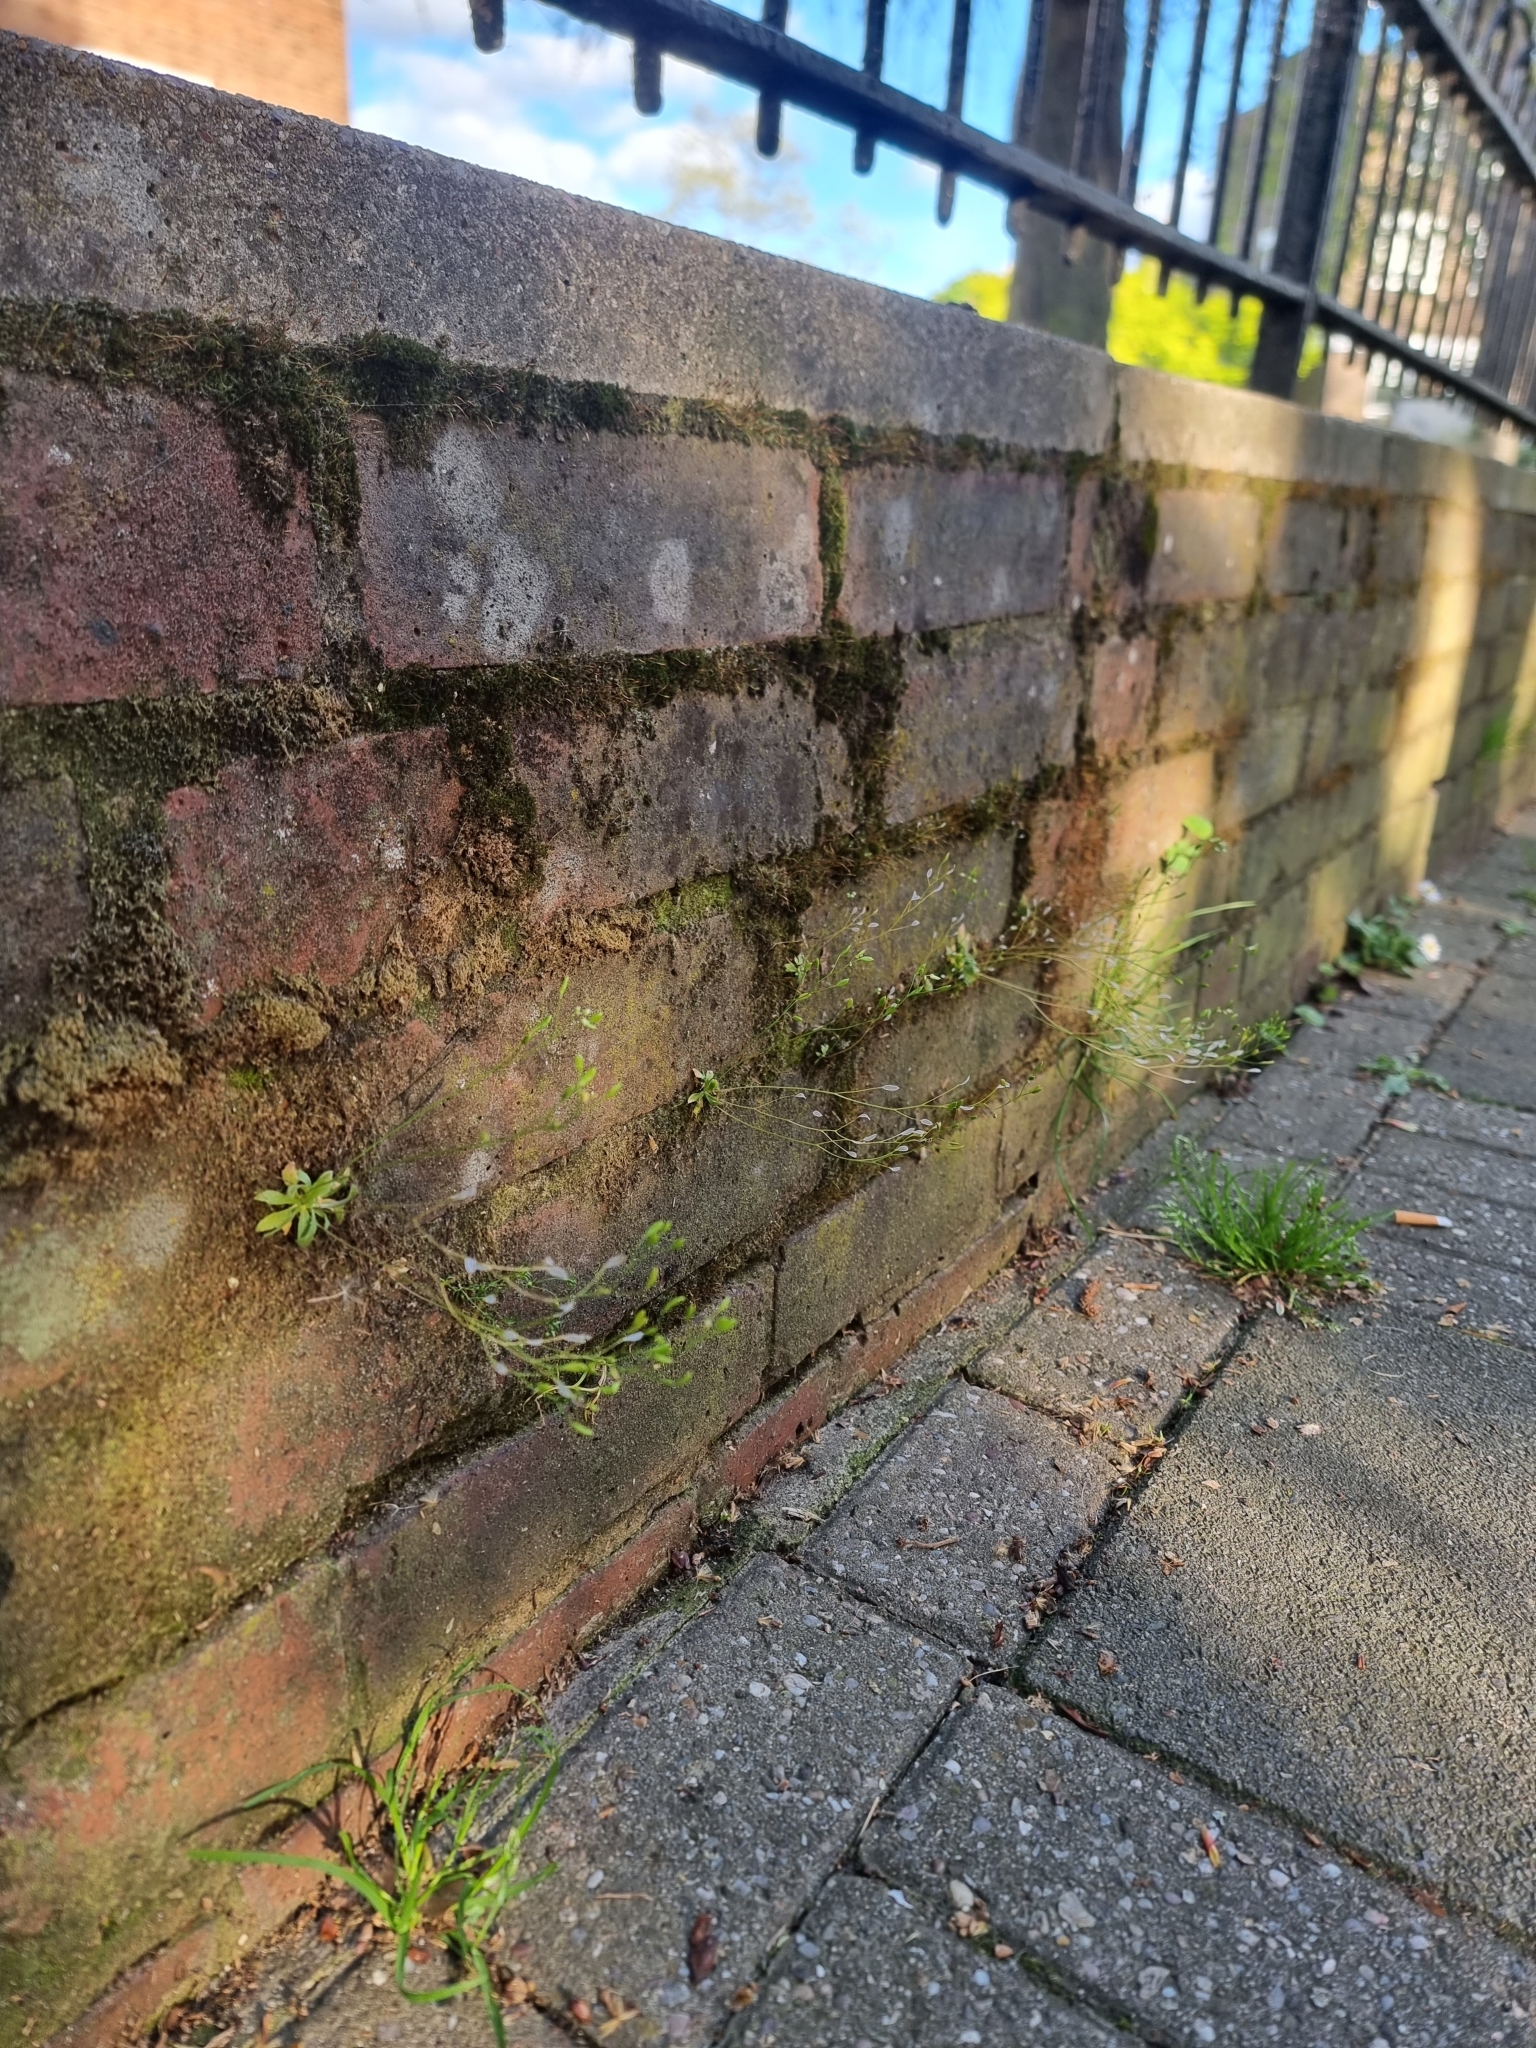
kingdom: Plantae
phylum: Tracheophyta
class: Magnoliopsida
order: Brassicales
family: Brassicaceae
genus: Draba
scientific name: Draba verna
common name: Spring draba
